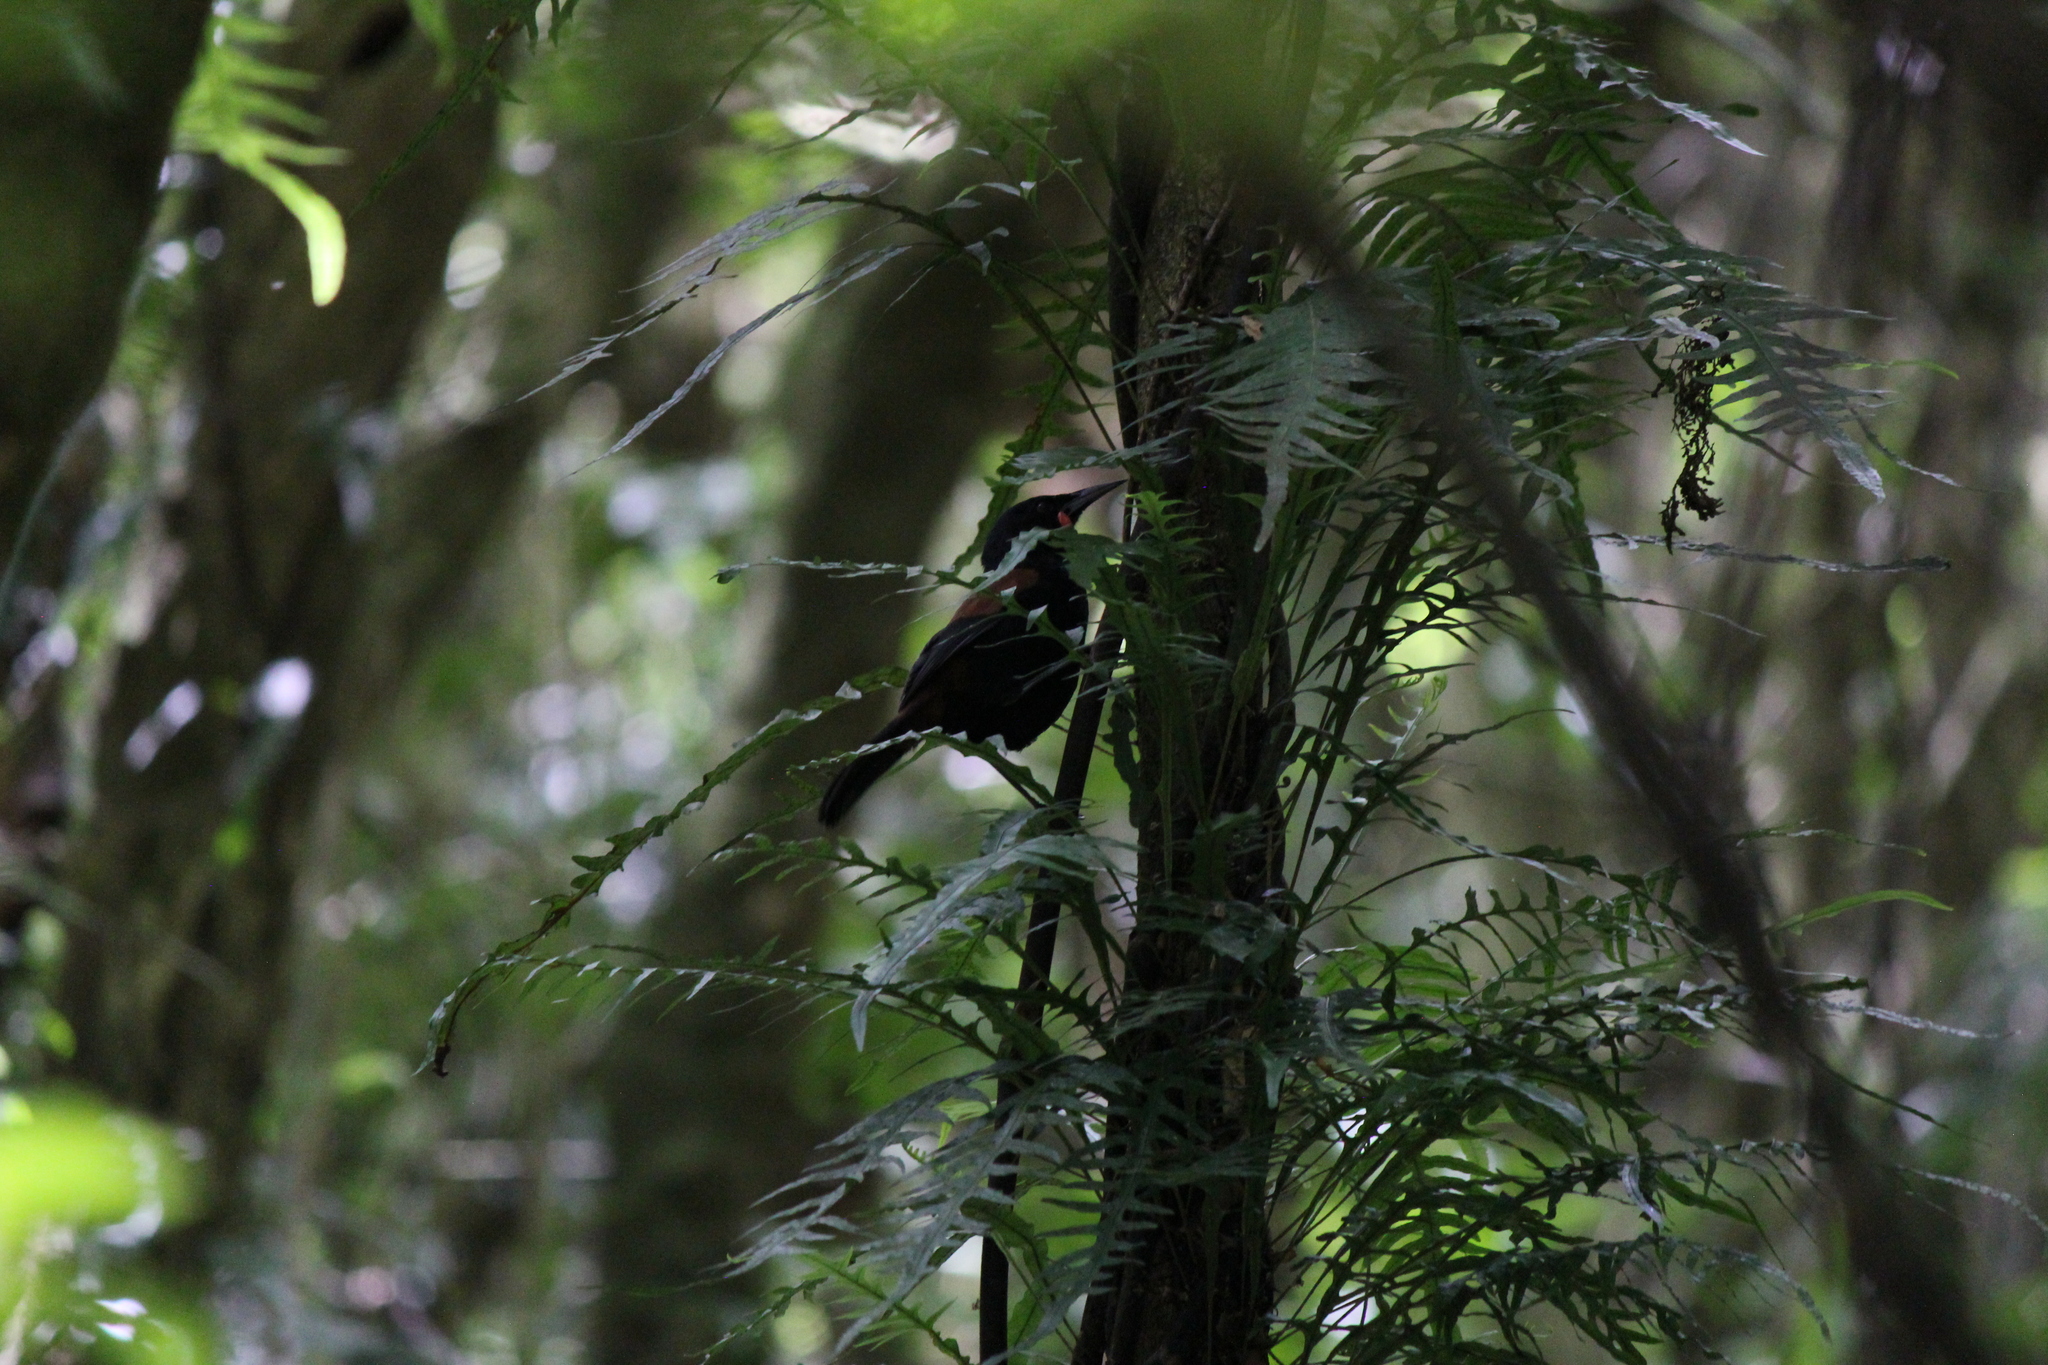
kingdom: Animalia
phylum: Chordata
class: Aves
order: Passeriformes
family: Callaeatidae
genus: Philesturnus
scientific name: Philesturnus carunculatus
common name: South island saddleback
